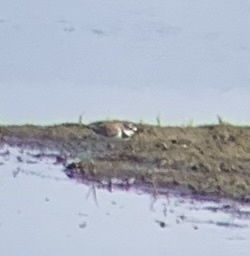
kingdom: Animalia
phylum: Chordata
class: Aves
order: Charadriiformes
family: Charadriidae
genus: Charadrius
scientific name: Charadrius dubius
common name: Little ringed plover
